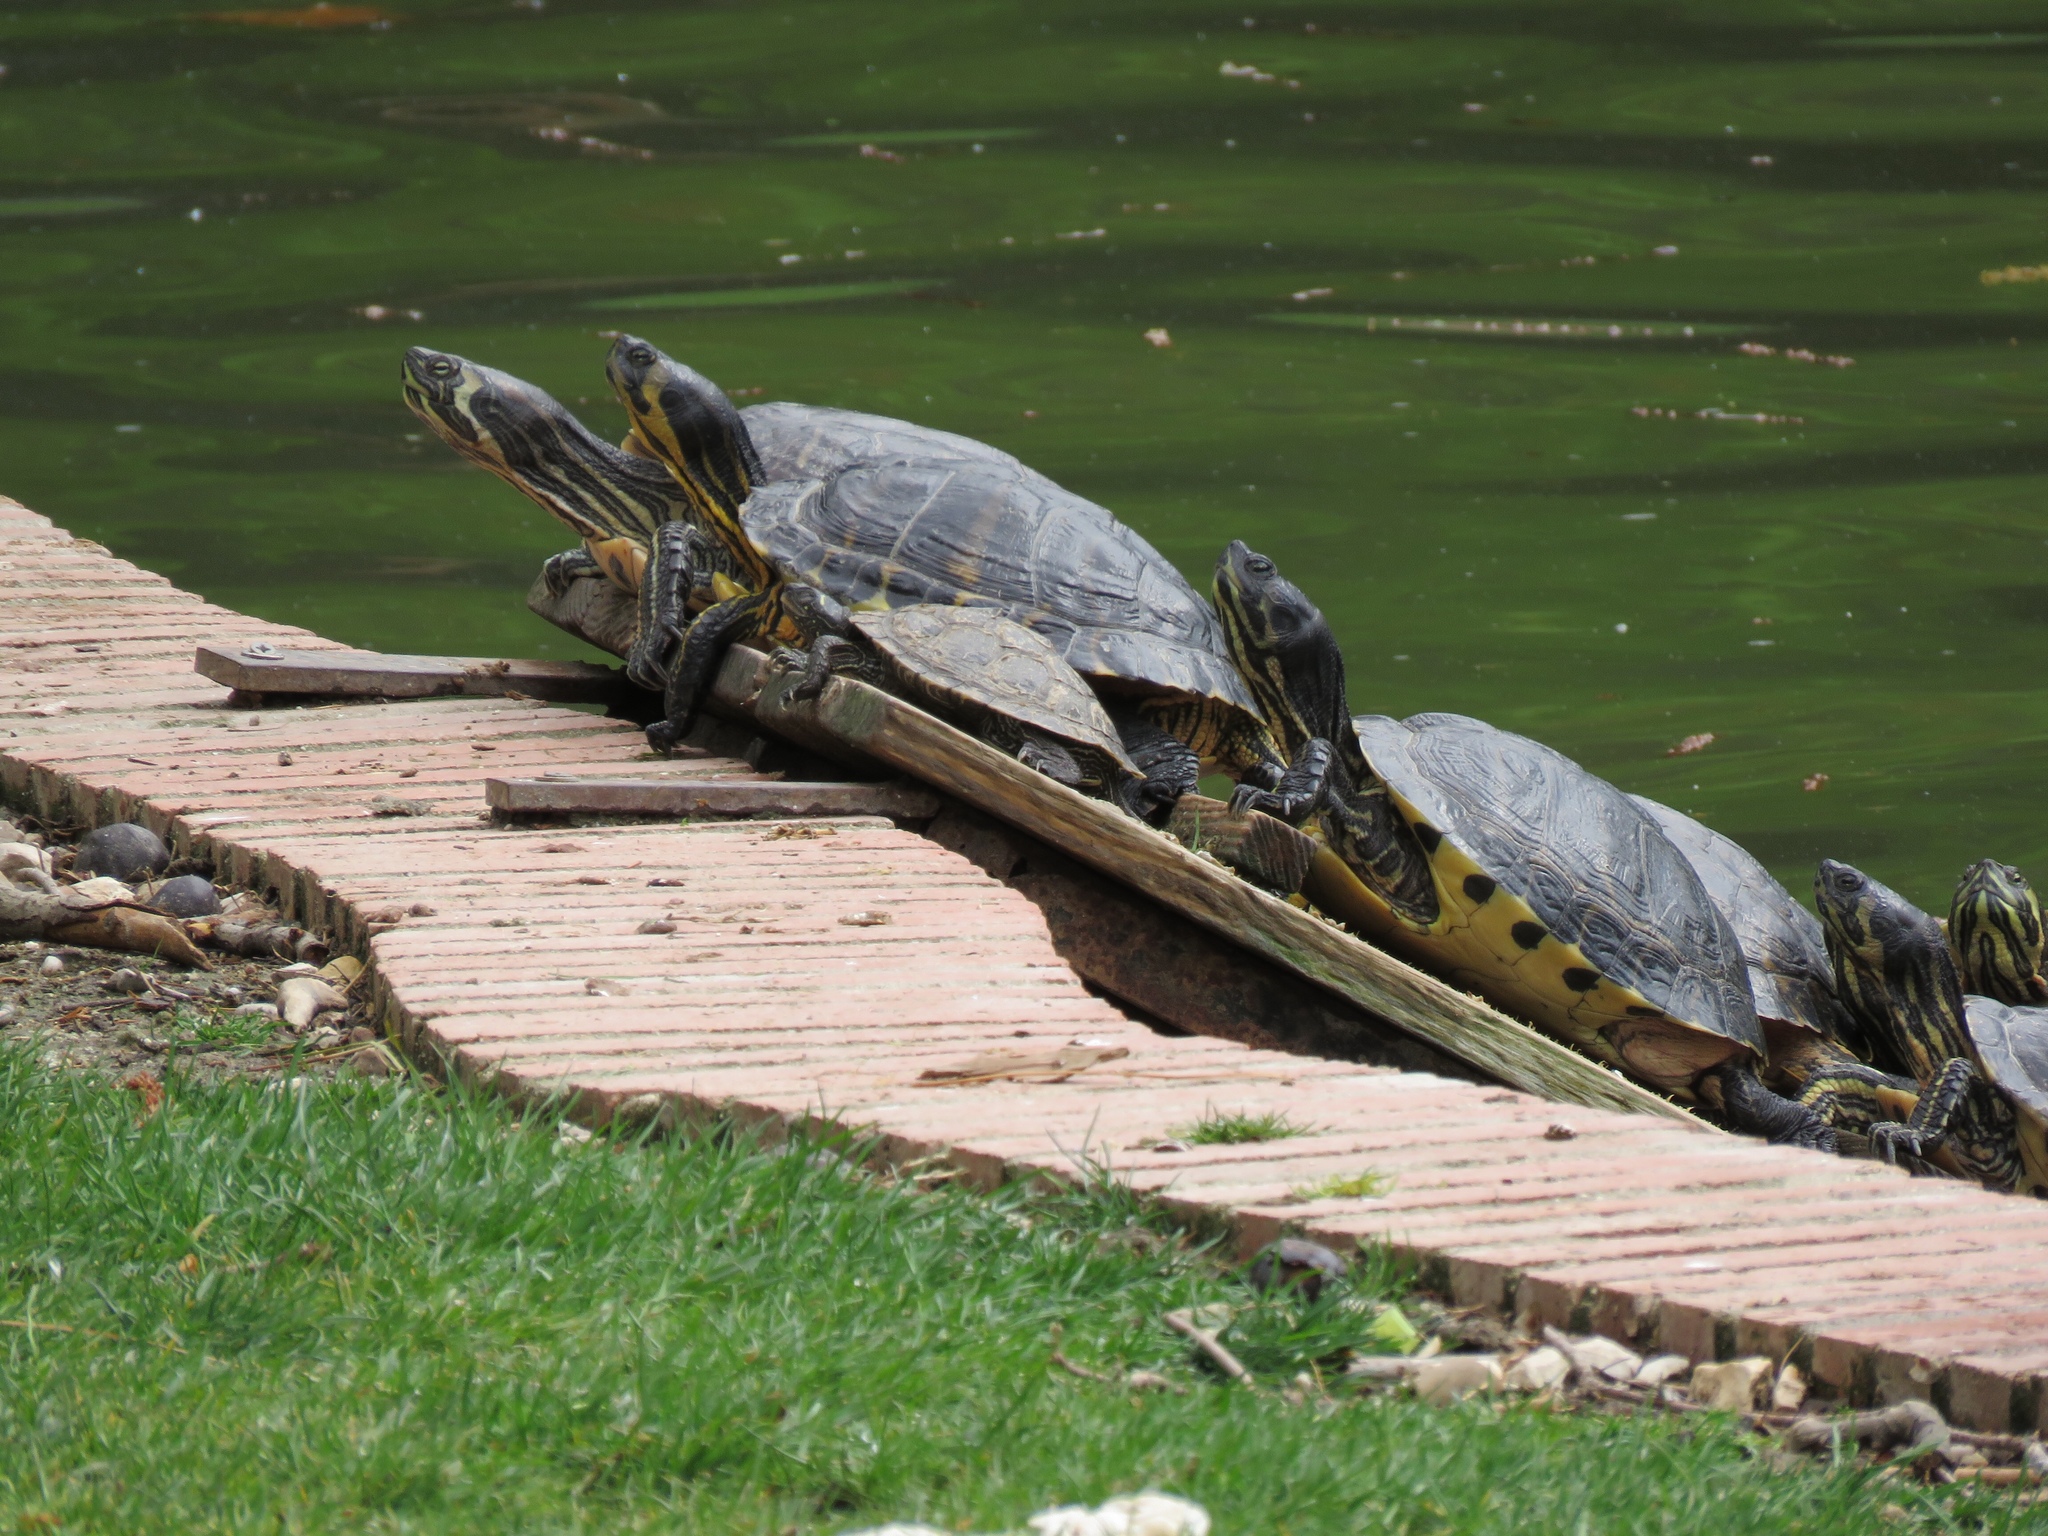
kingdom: Animalia
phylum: Chordata
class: Testudines
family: Emydidae
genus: Trachemys
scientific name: Trachemys scripta
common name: Slider
